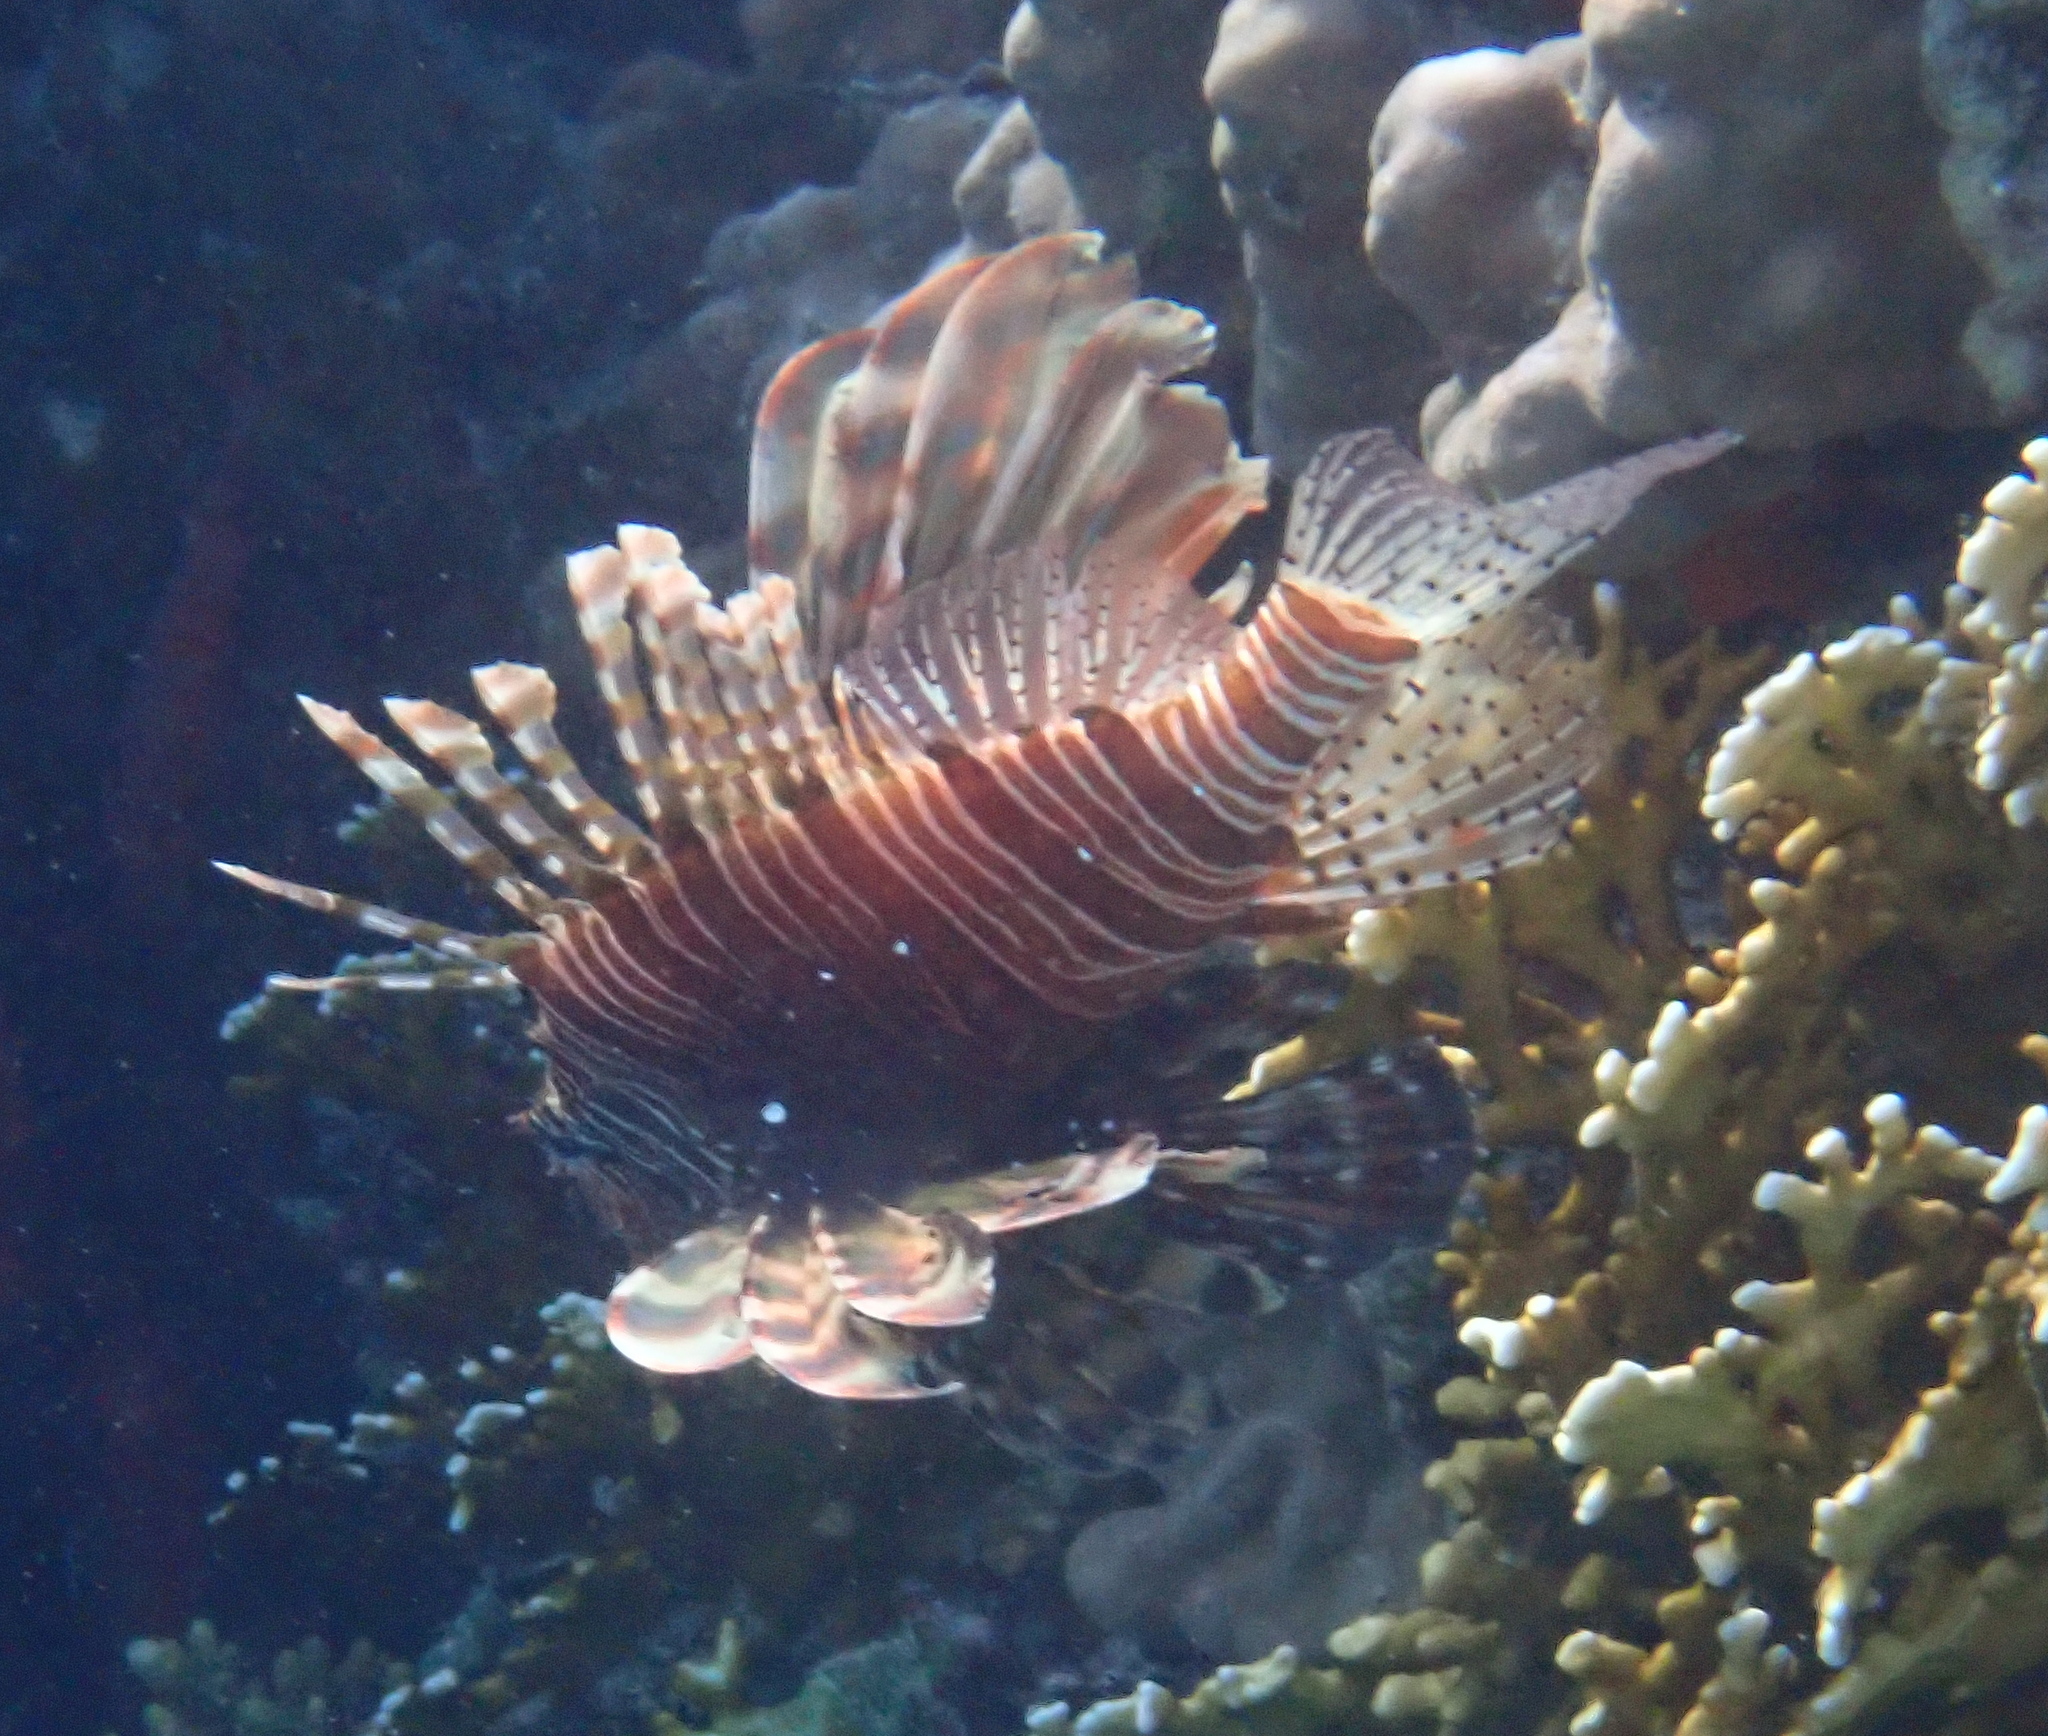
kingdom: Animalia
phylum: Chordata
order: Scorpaeniformes
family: Scorpaenidae
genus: Pterois
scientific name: Pterois miles
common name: Devil firefish
